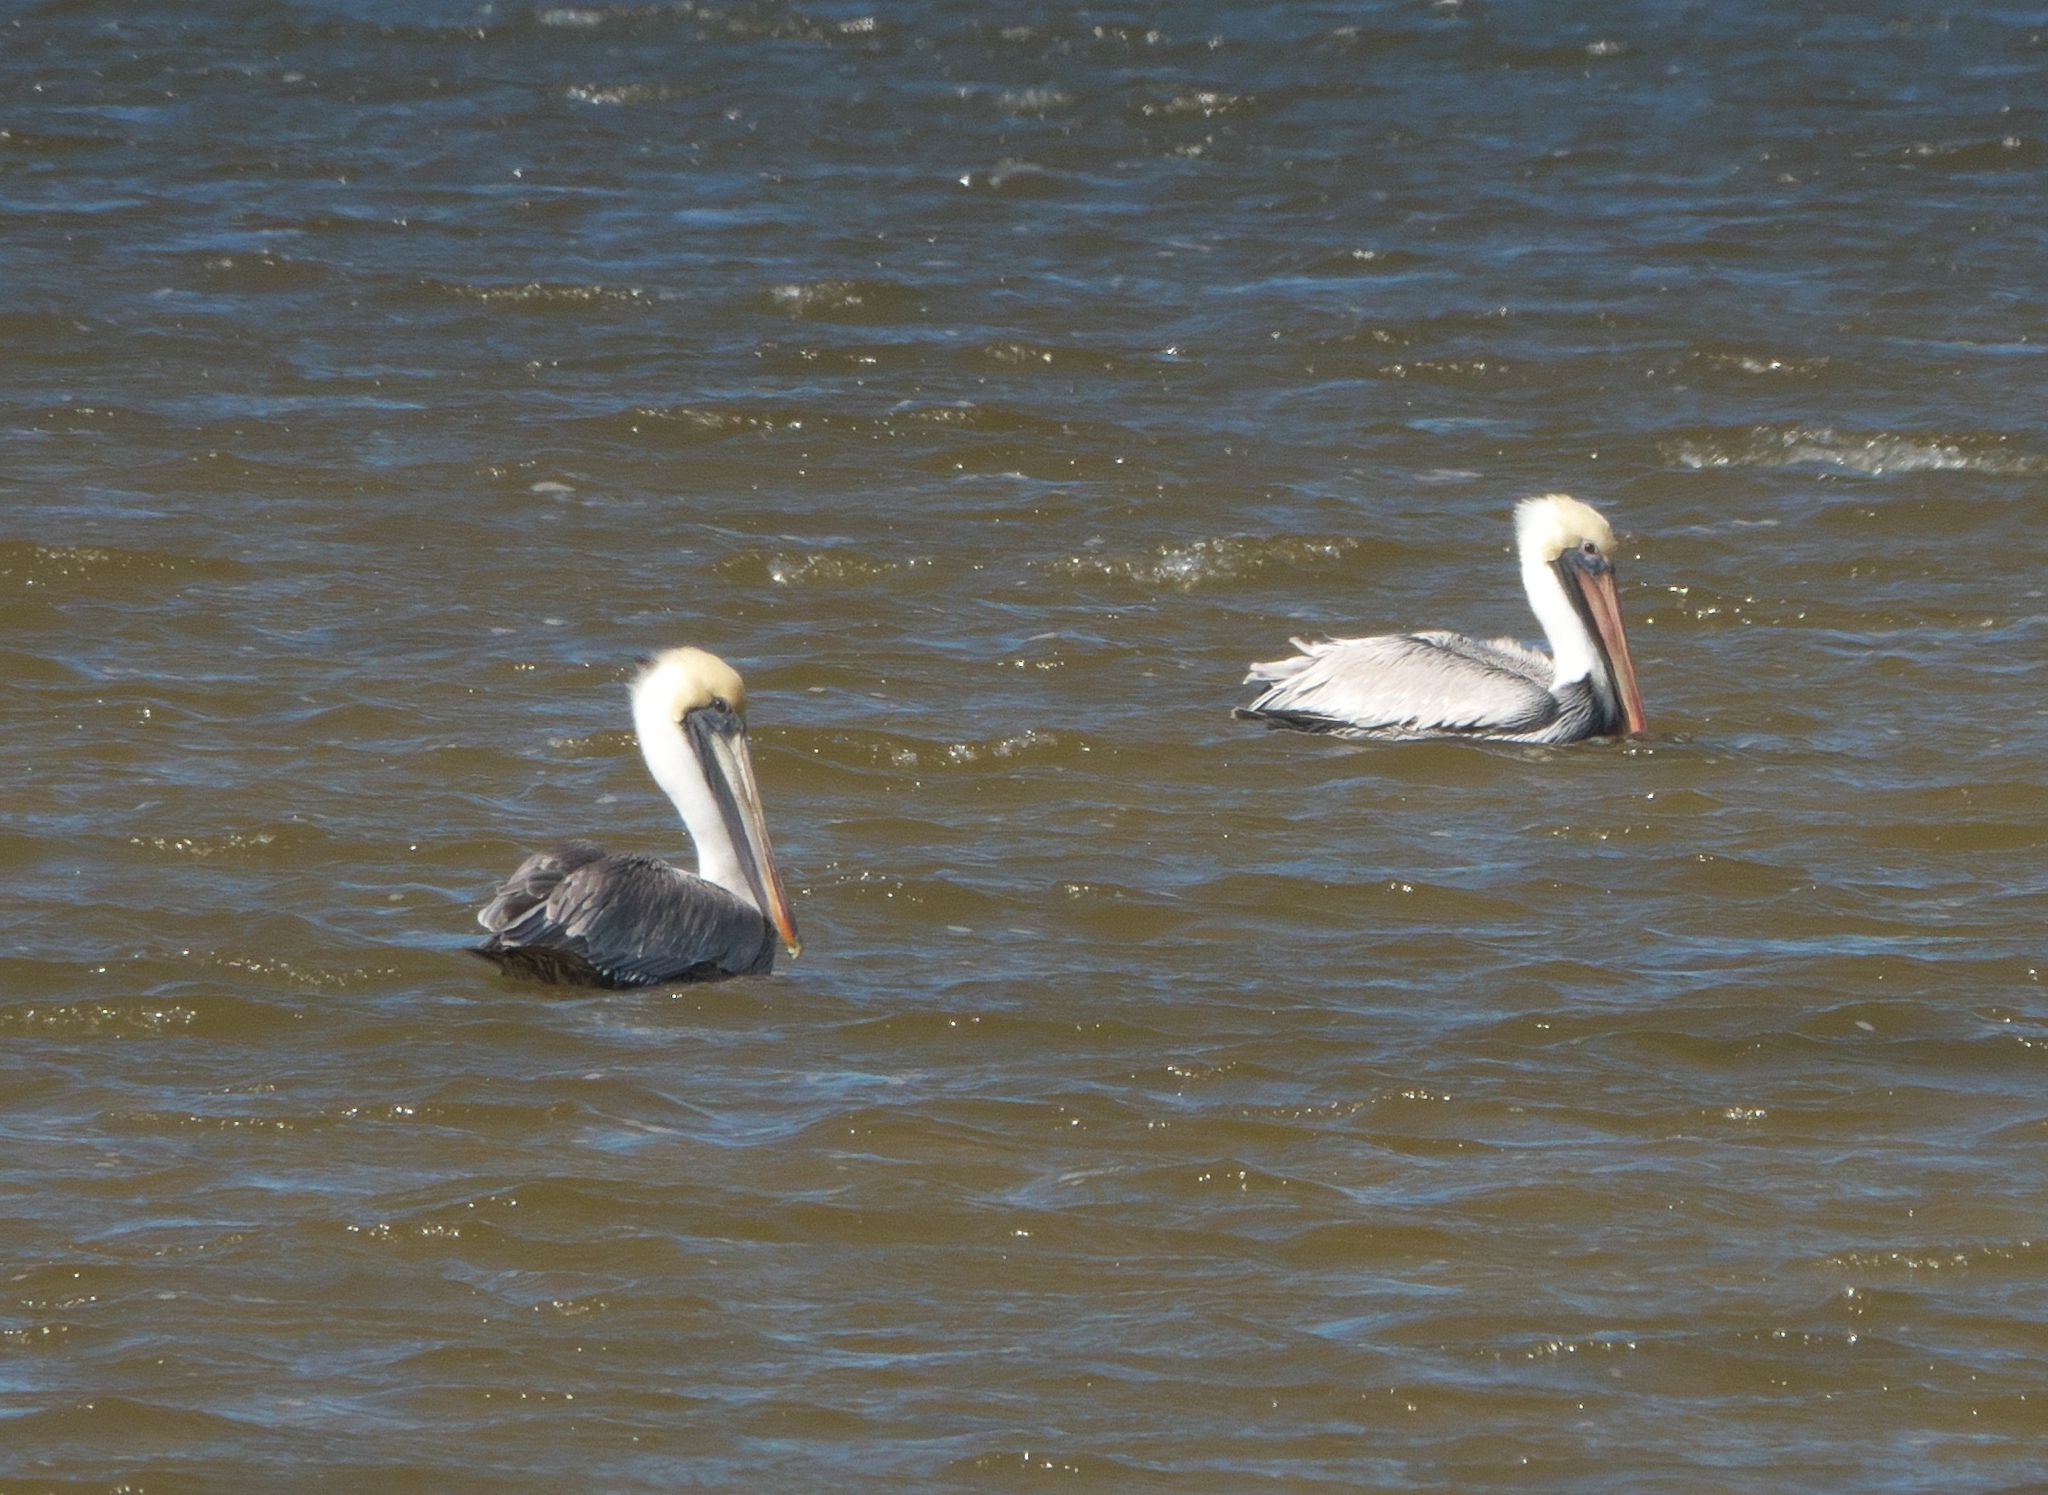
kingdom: Animalia
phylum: Chordata
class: Aves
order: Pelecaniformes
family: Pelecanidae
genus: Pelecanus
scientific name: Pelecanus occidentalis
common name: Brown pelican
